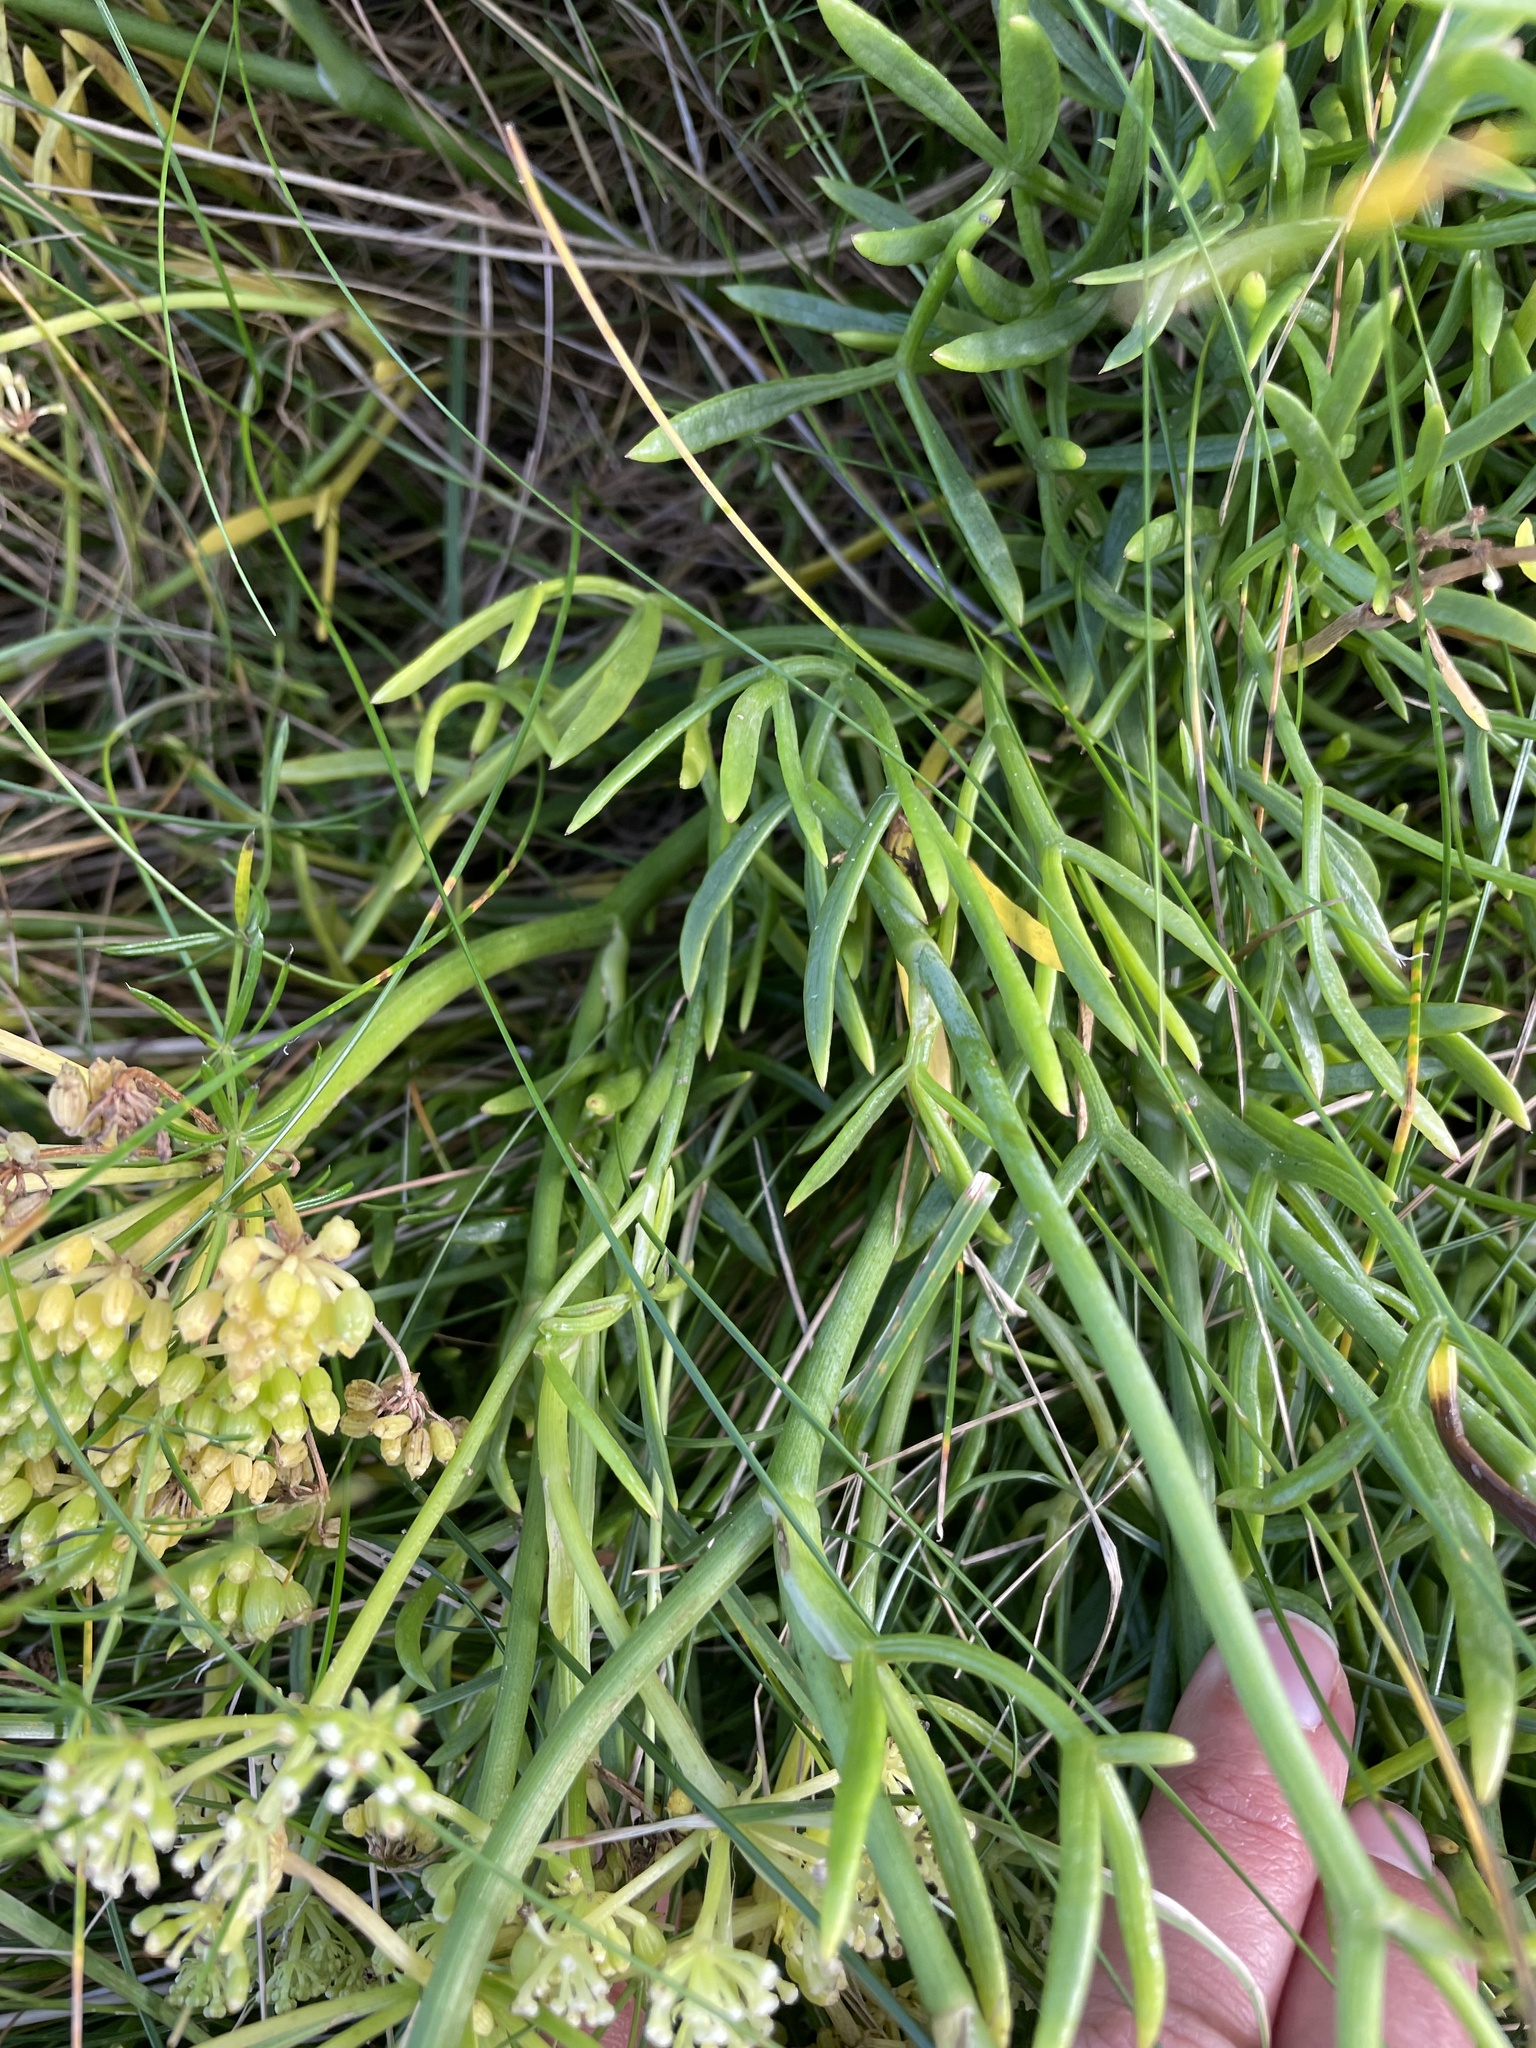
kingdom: Plantae
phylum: Tracheophyta
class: Magnoliopsida
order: Apiales
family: Apiaceae
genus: Crithmum
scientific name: Crithmum maritimum
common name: Rock samphire
